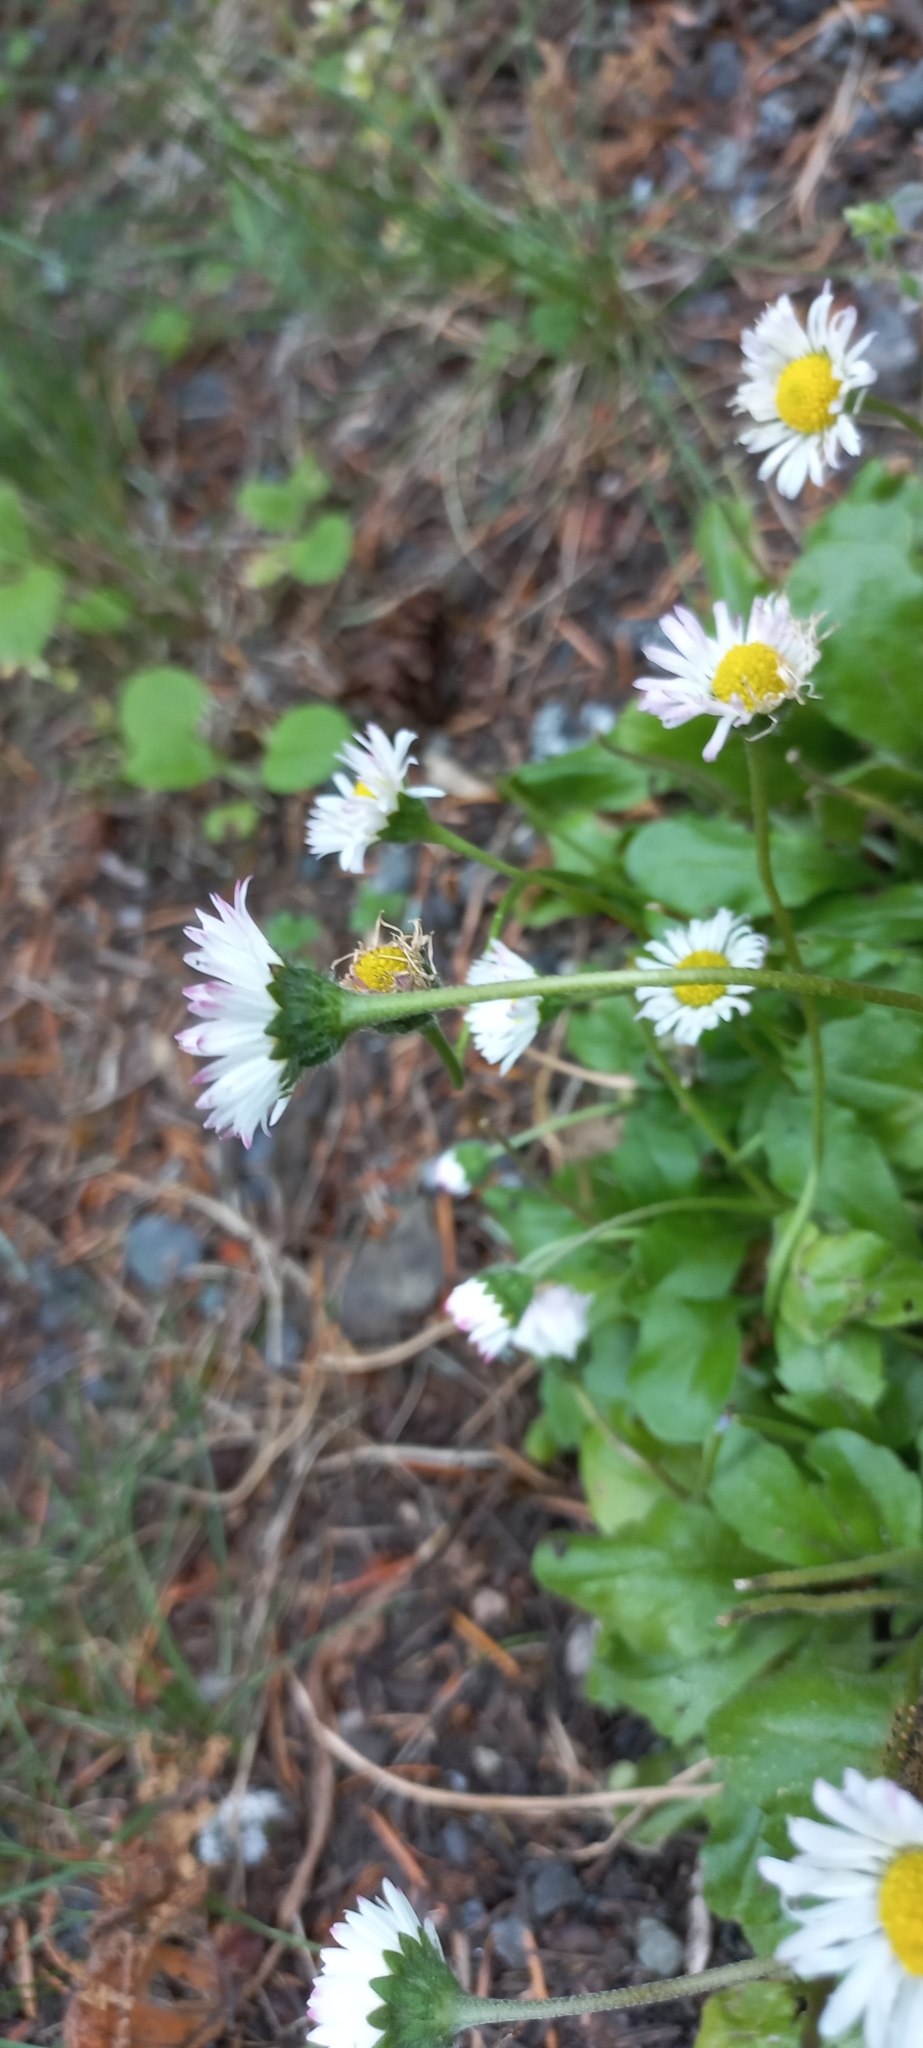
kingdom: Plantae
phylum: Tracheophyta
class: Magnoliopsida
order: Asterales
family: Asteraceae
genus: Bellis
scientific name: Bellis perennis
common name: Lawndaisy
